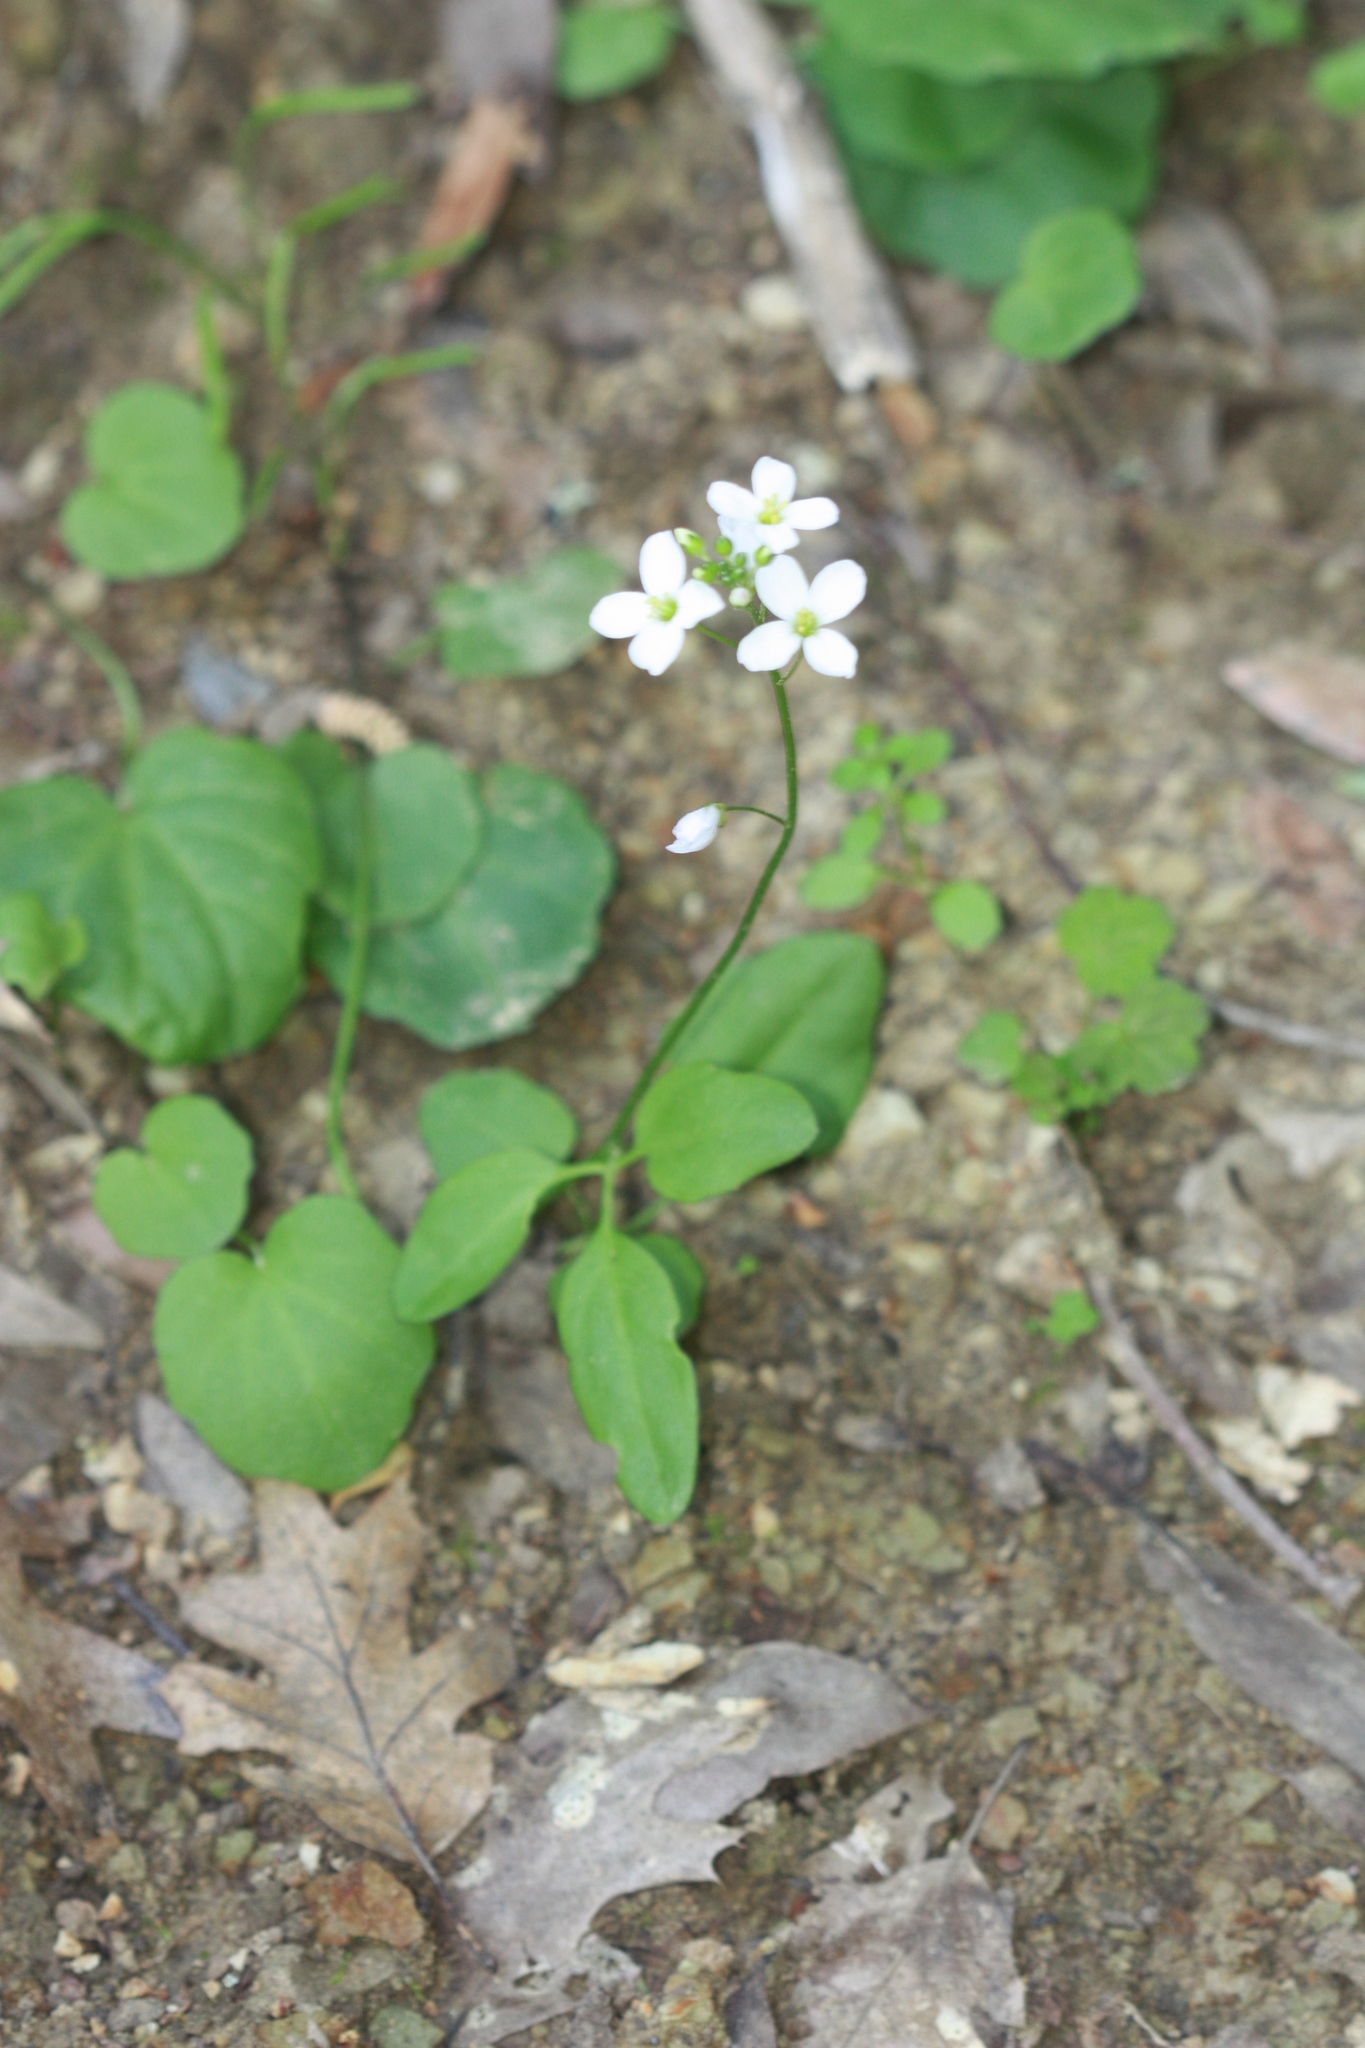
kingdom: Plantae
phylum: Tracheophyta
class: Magnoliopsida
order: Brassicales
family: Brassicaceae
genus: Cardamine
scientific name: Cardamine californica
